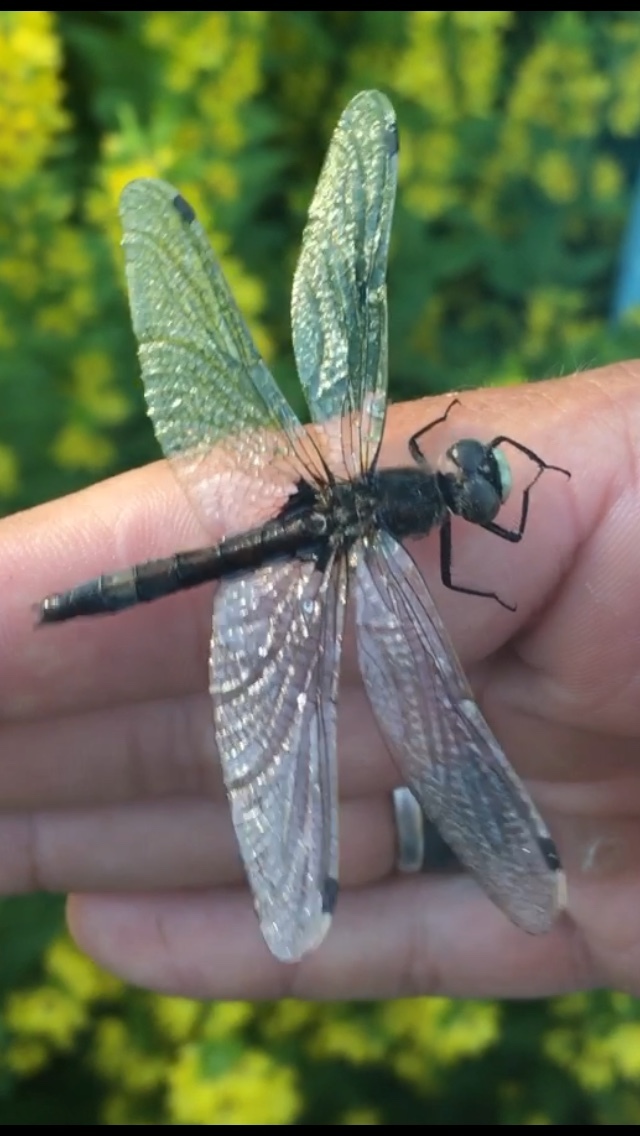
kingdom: Animalia
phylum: Arthropoda
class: Insecta
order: Odonata
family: Libellulidae
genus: Leucorrhinia
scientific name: Leucorrhinia pectoralis
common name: Yellow-spotted whiteface
